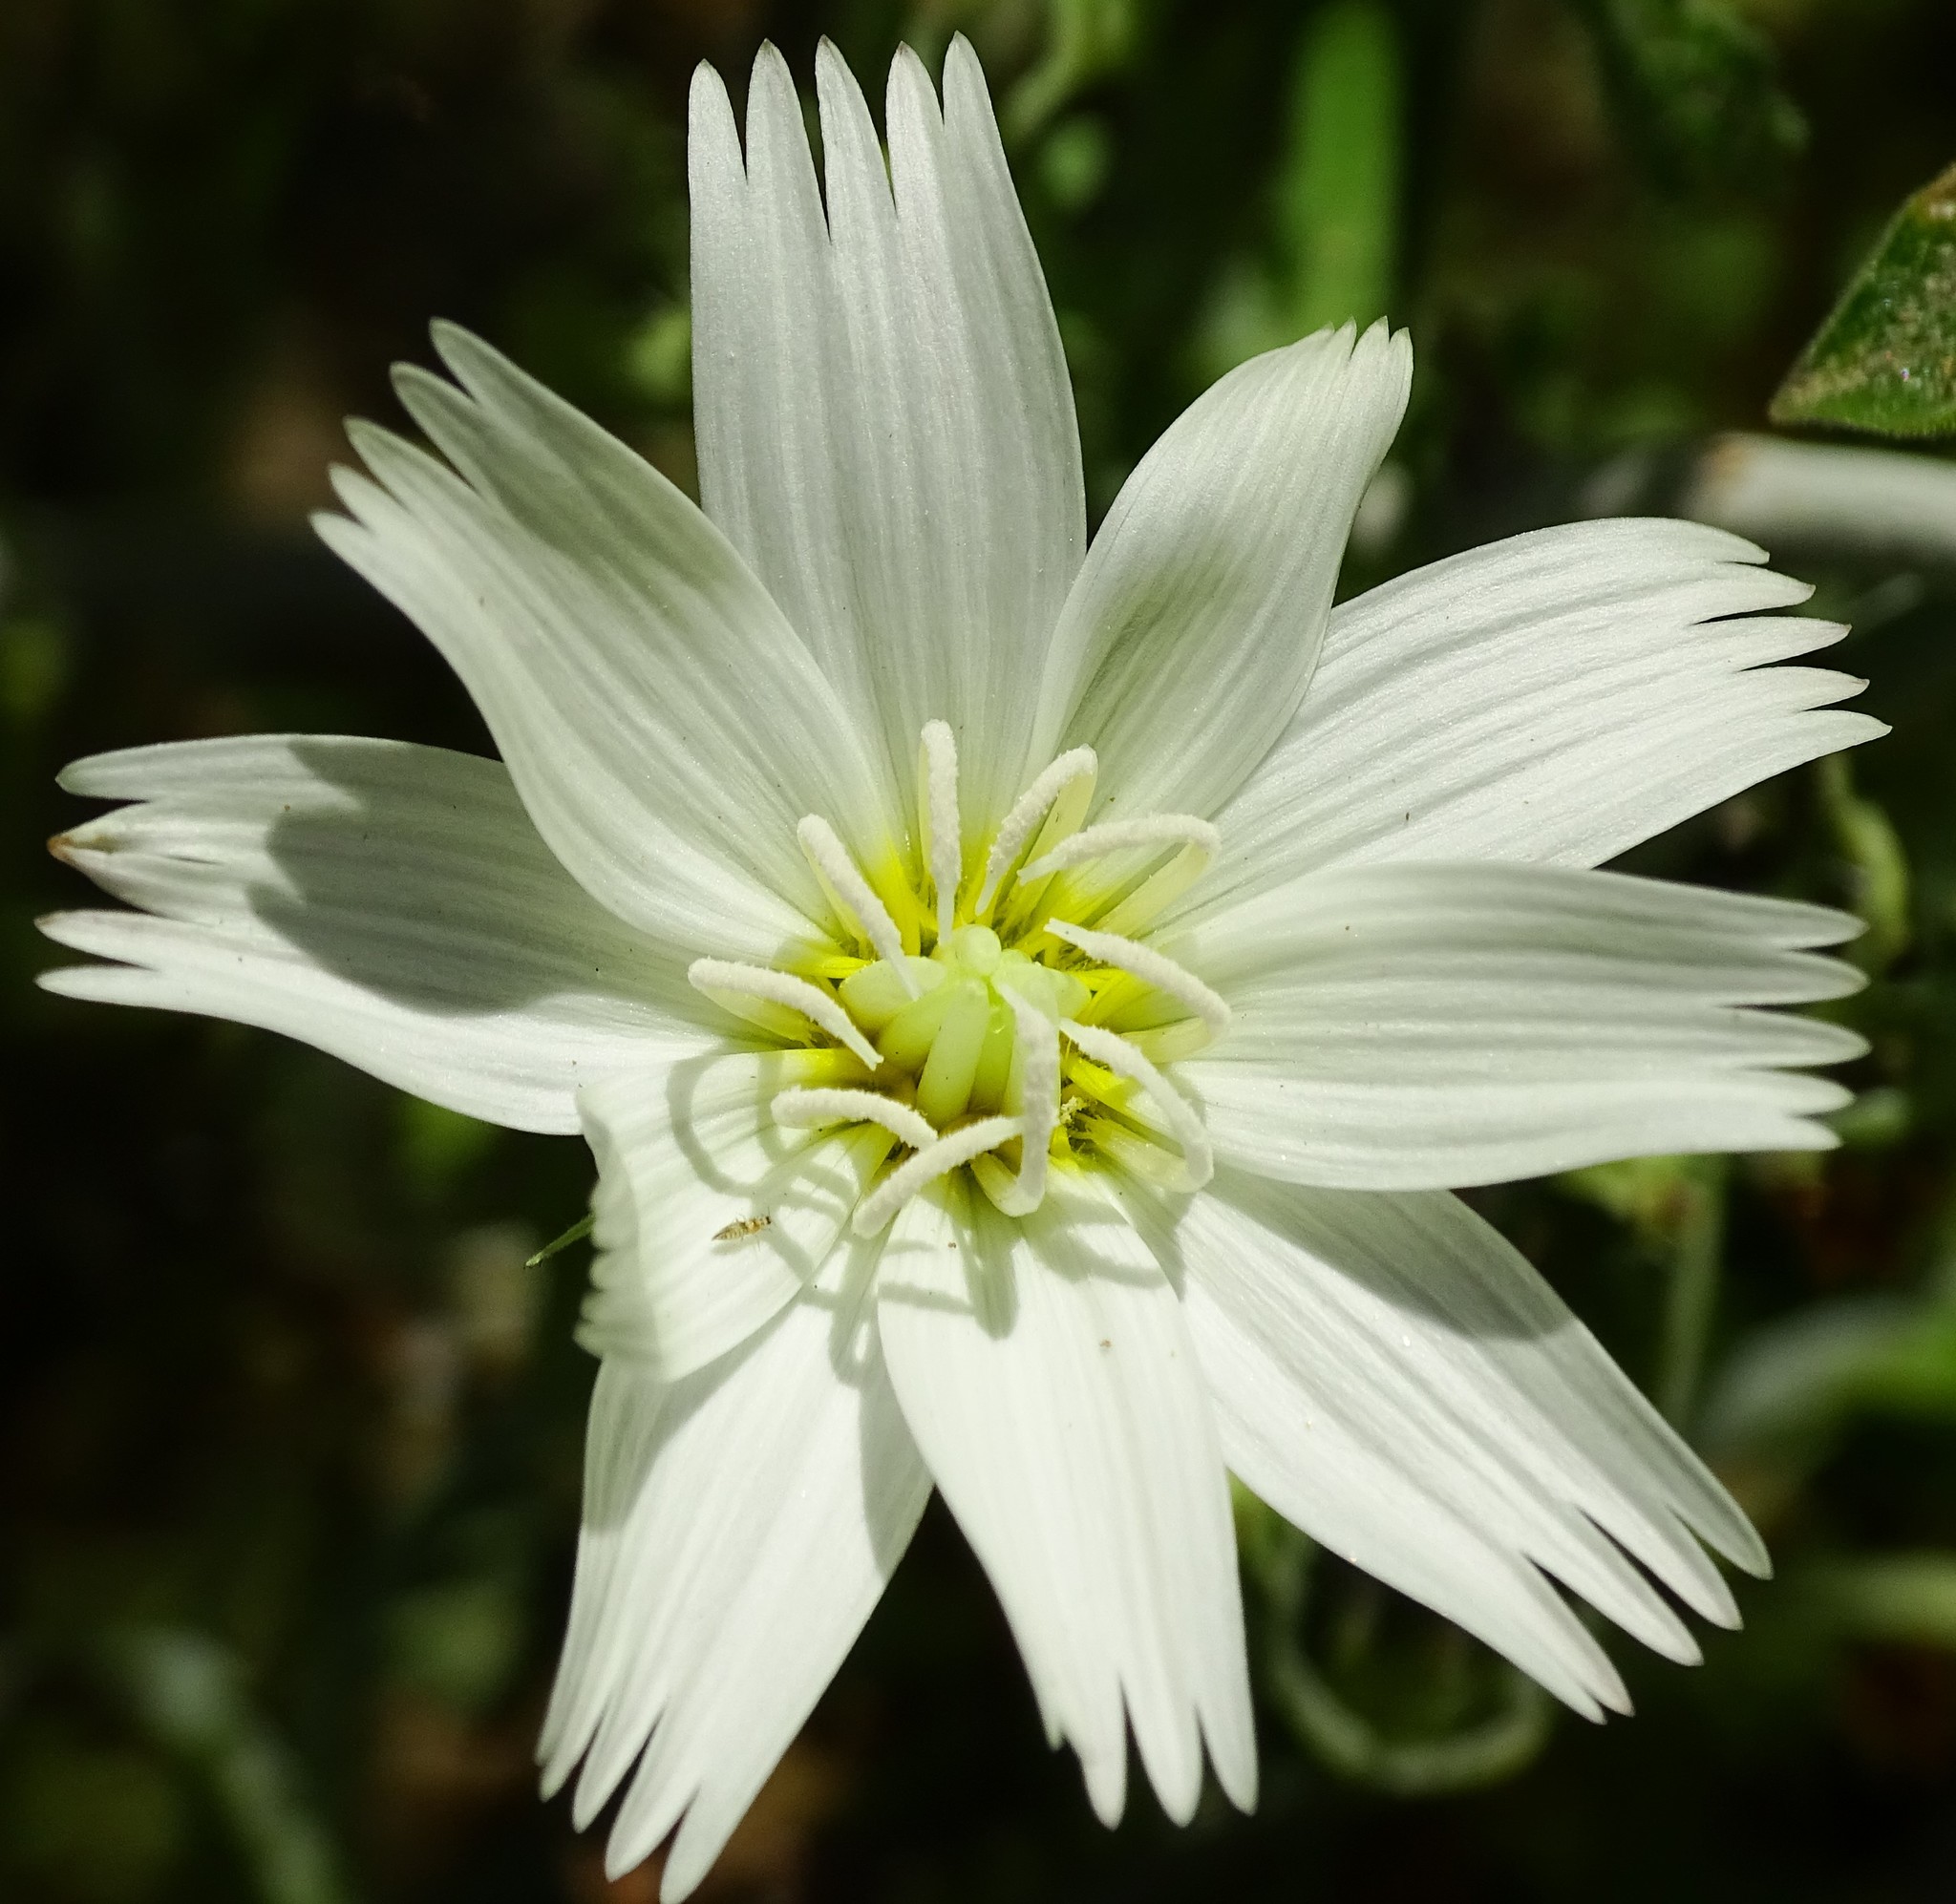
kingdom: Plantae
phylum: Tracheophyta
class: Magnoliopsida
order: Asterales
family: Asteraceae
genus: Rafinesquia
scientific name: Rafinesquia neomexicana
